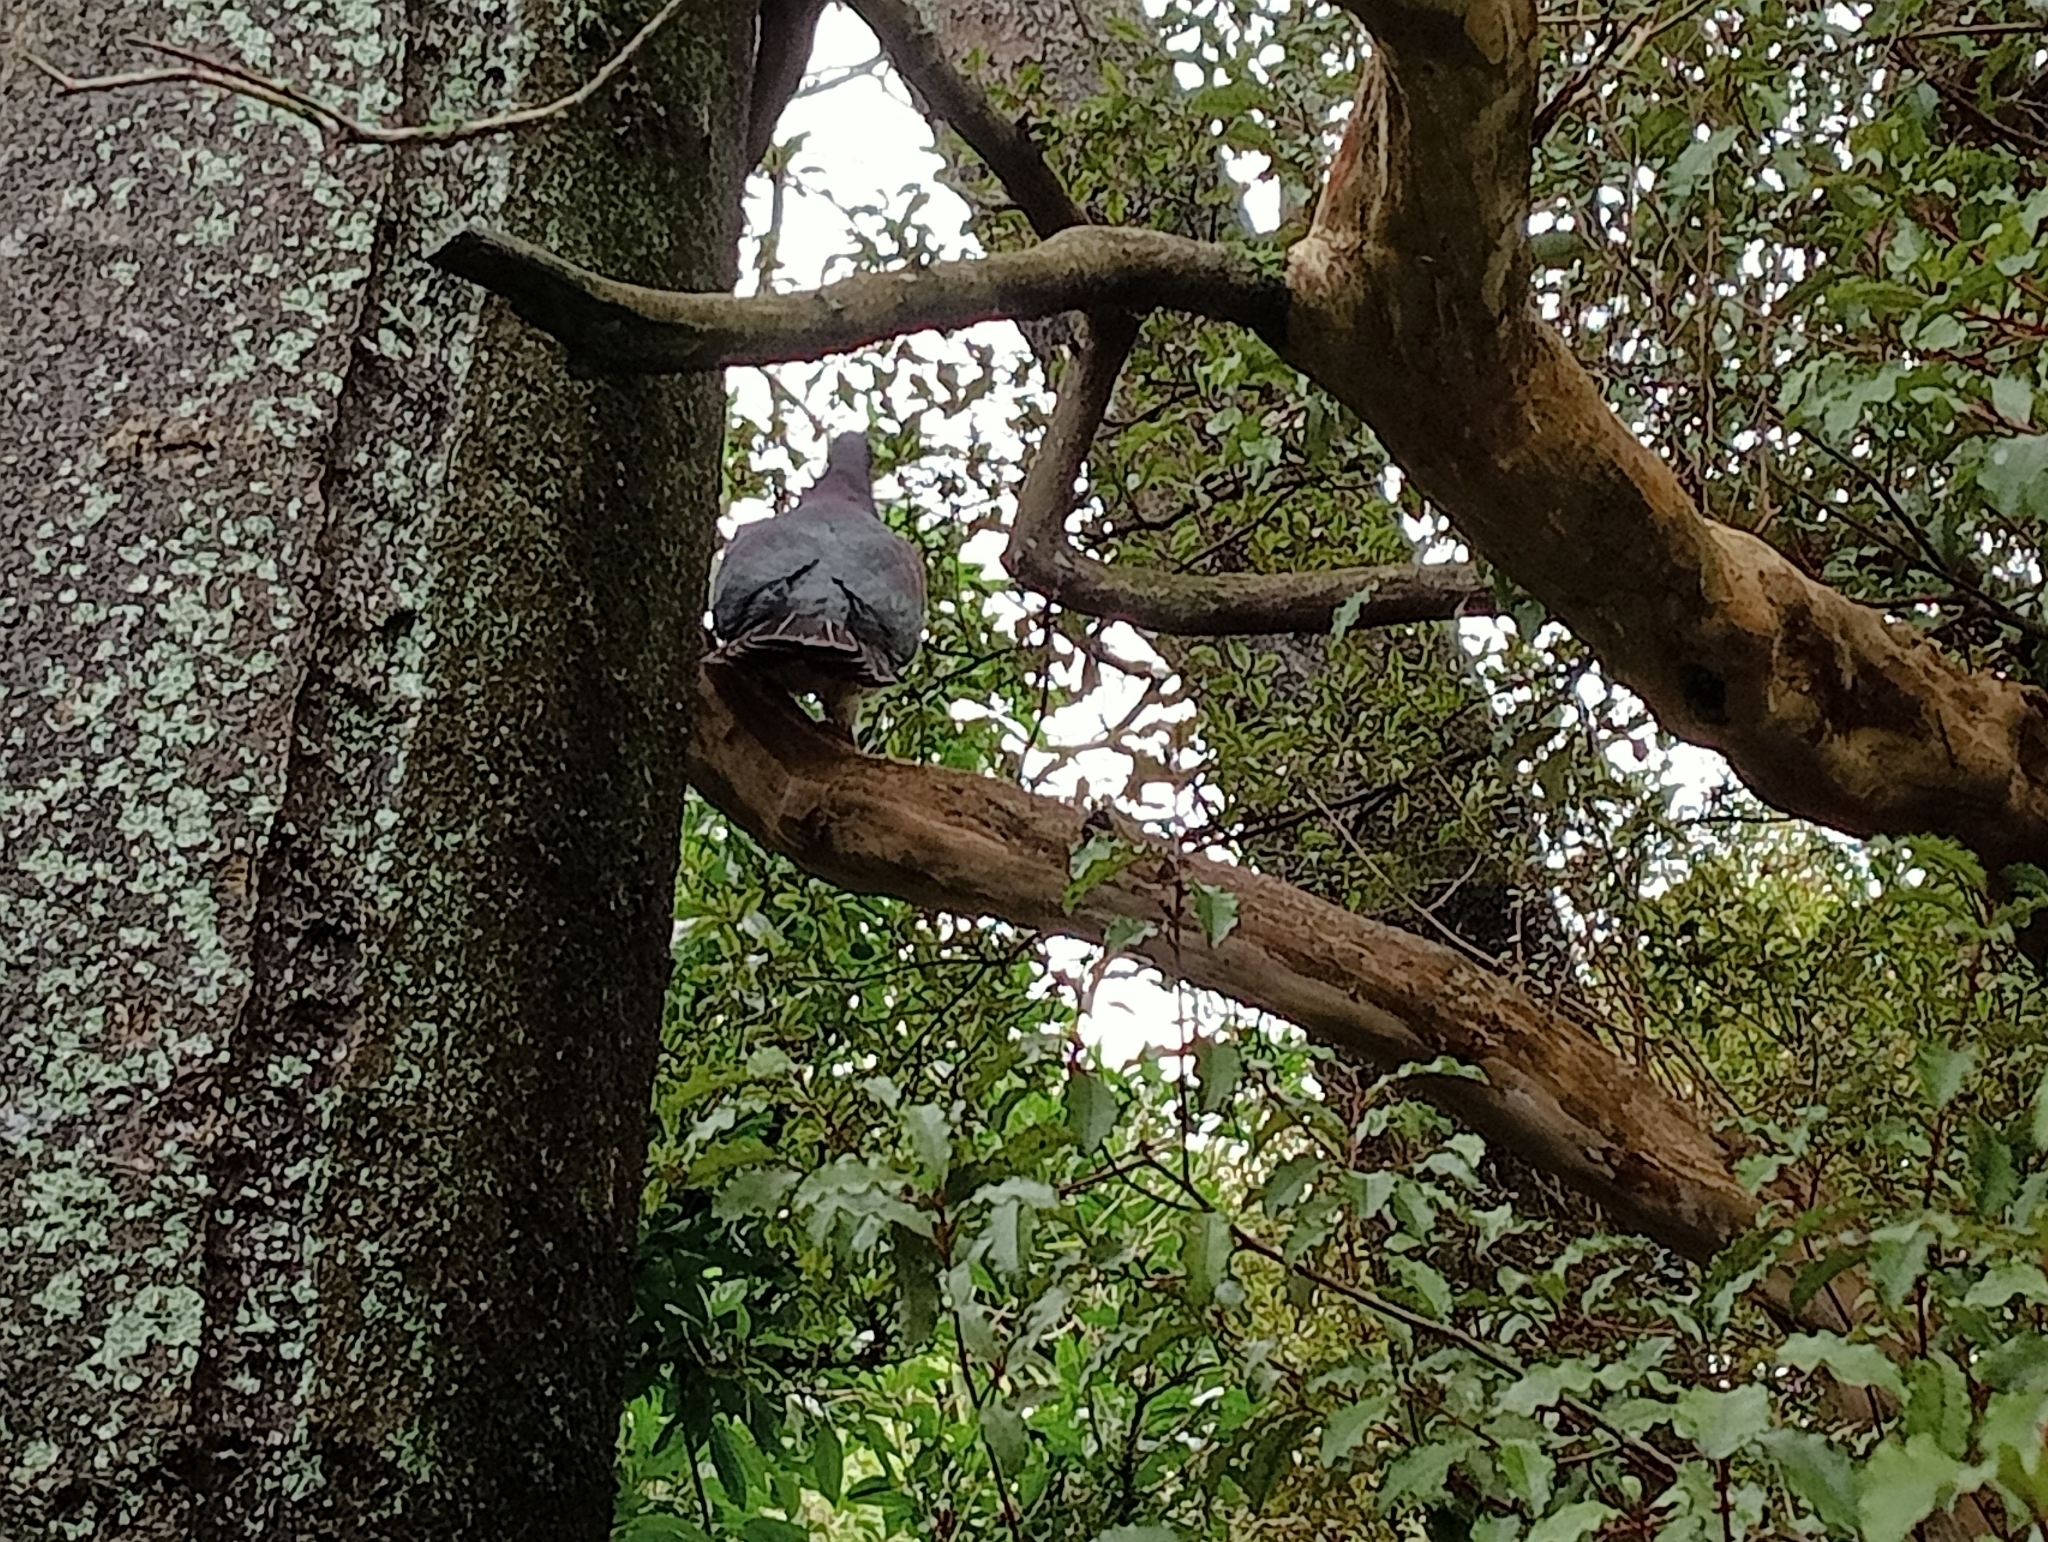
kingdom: Animalia
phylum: Chordata
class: Aves
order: Columbiformes
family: Columbidae
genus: Hemiphaga
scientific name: Hemiphaga novaeseelandiae
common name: New zealand pigeon
